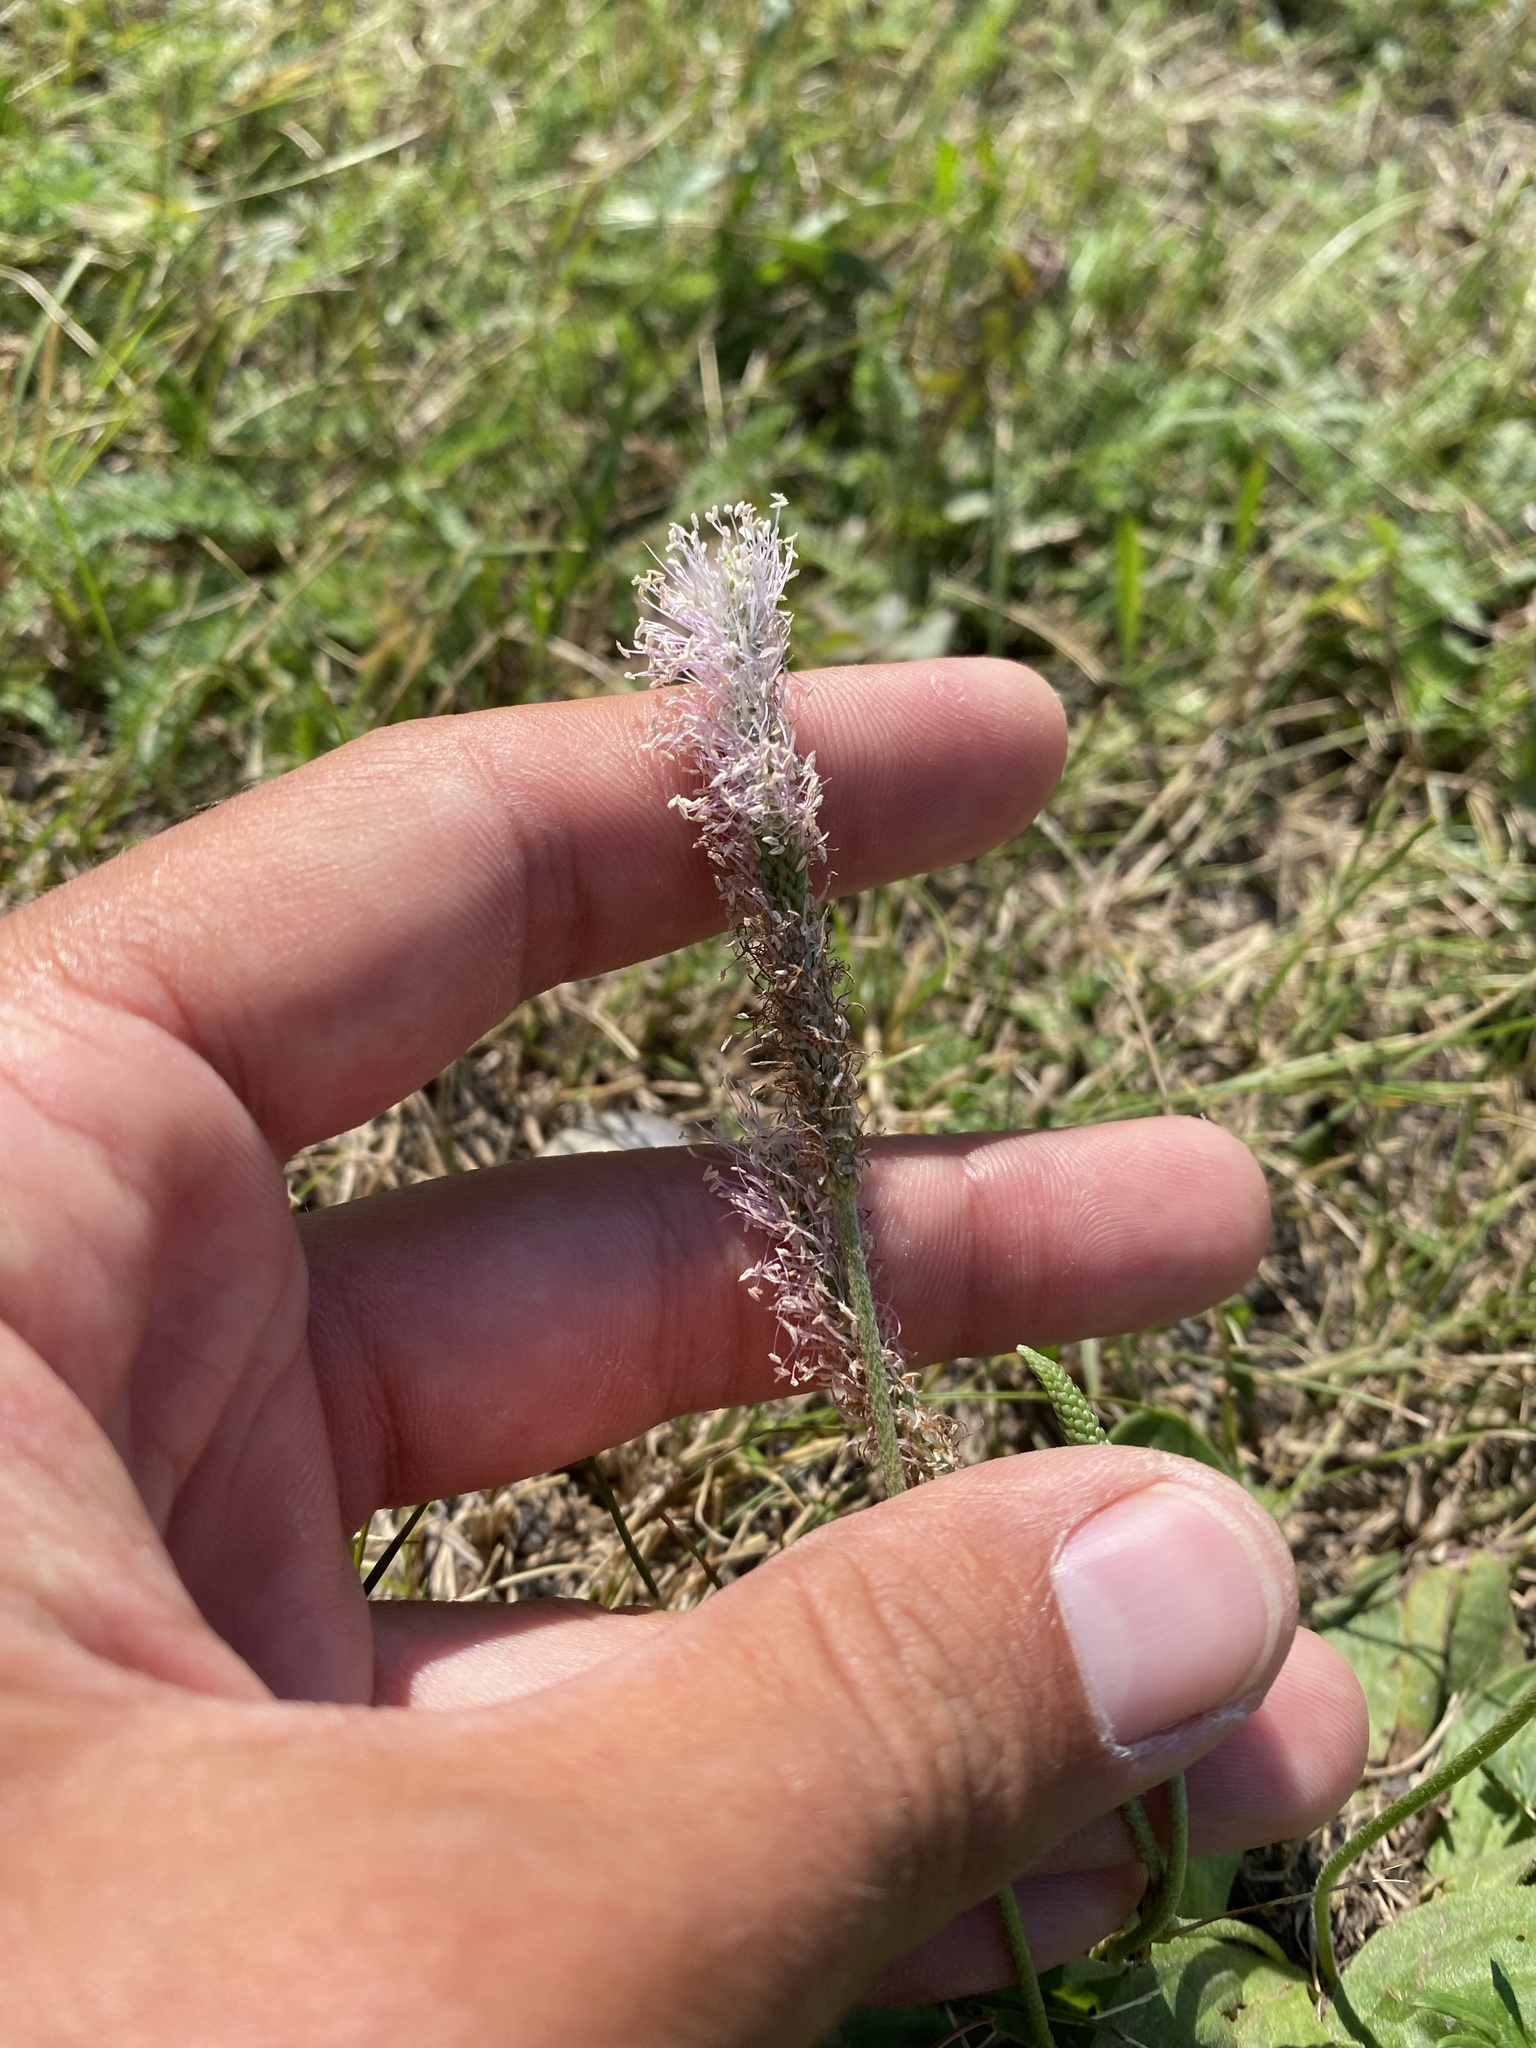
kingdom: Plantae
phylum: Tracheophyta
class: Magnoliopsida
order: Lamiales
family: Plantaginaceae
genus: Plantago
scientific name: Plantago media
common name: Hoary plantain
